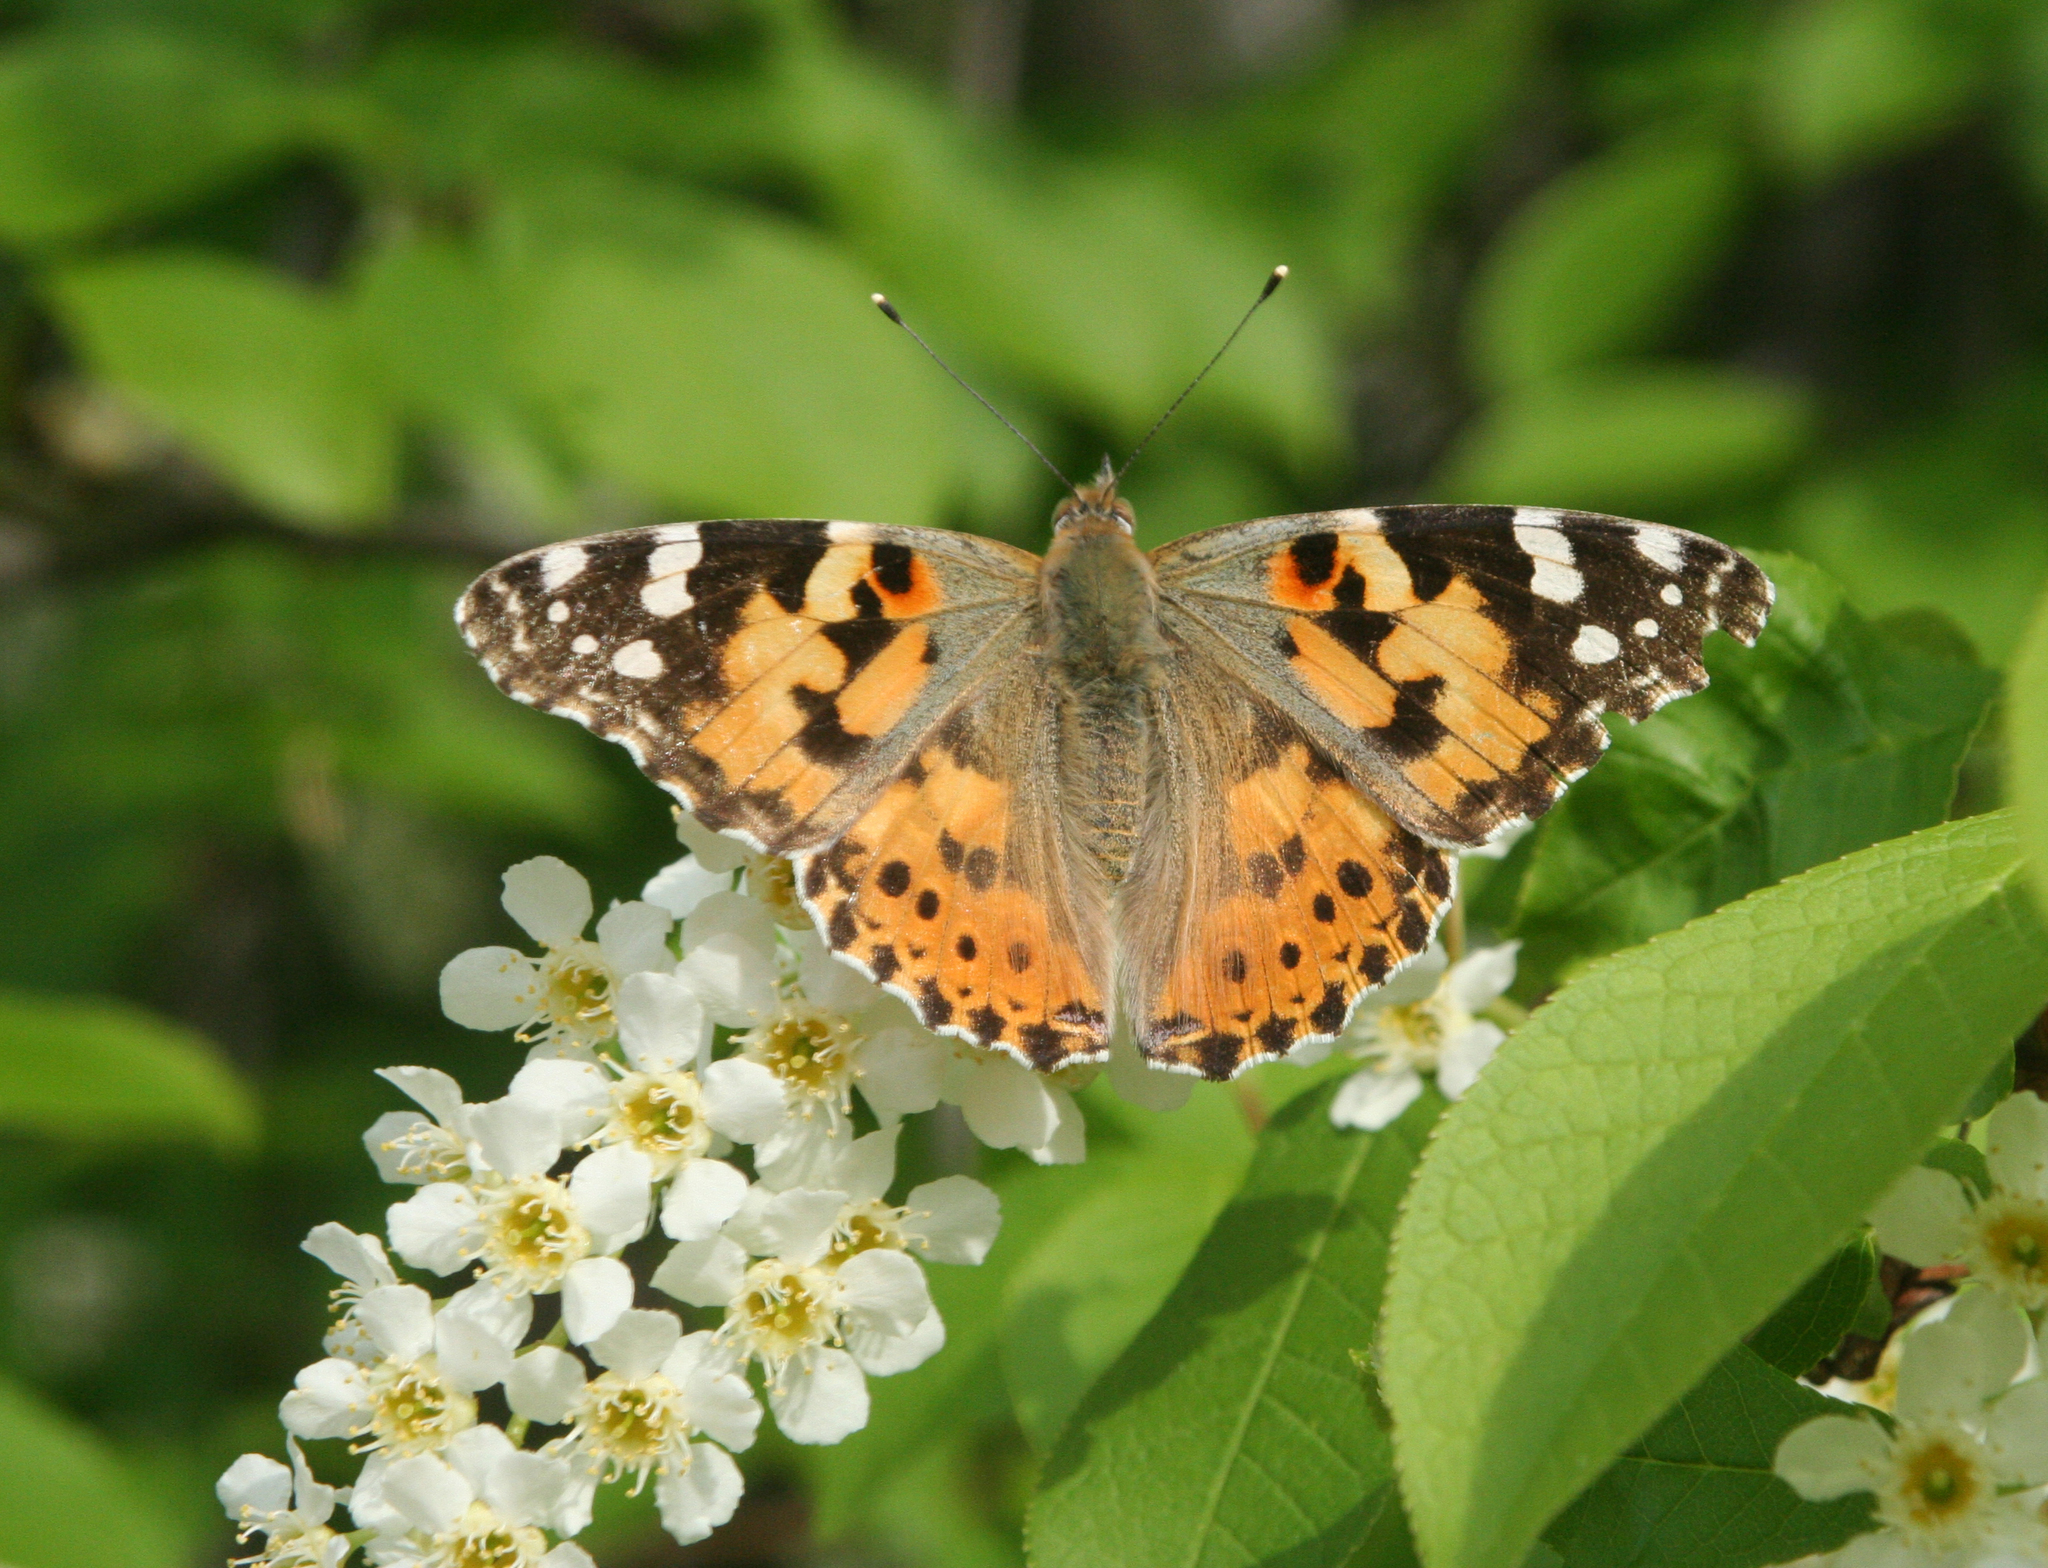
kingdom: Plantae
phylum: Tracheophyta
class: Magnoliopsida
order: Rosales
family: Rosaceae
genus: Prunus
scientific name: Prunus padus
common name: Bird cherry
